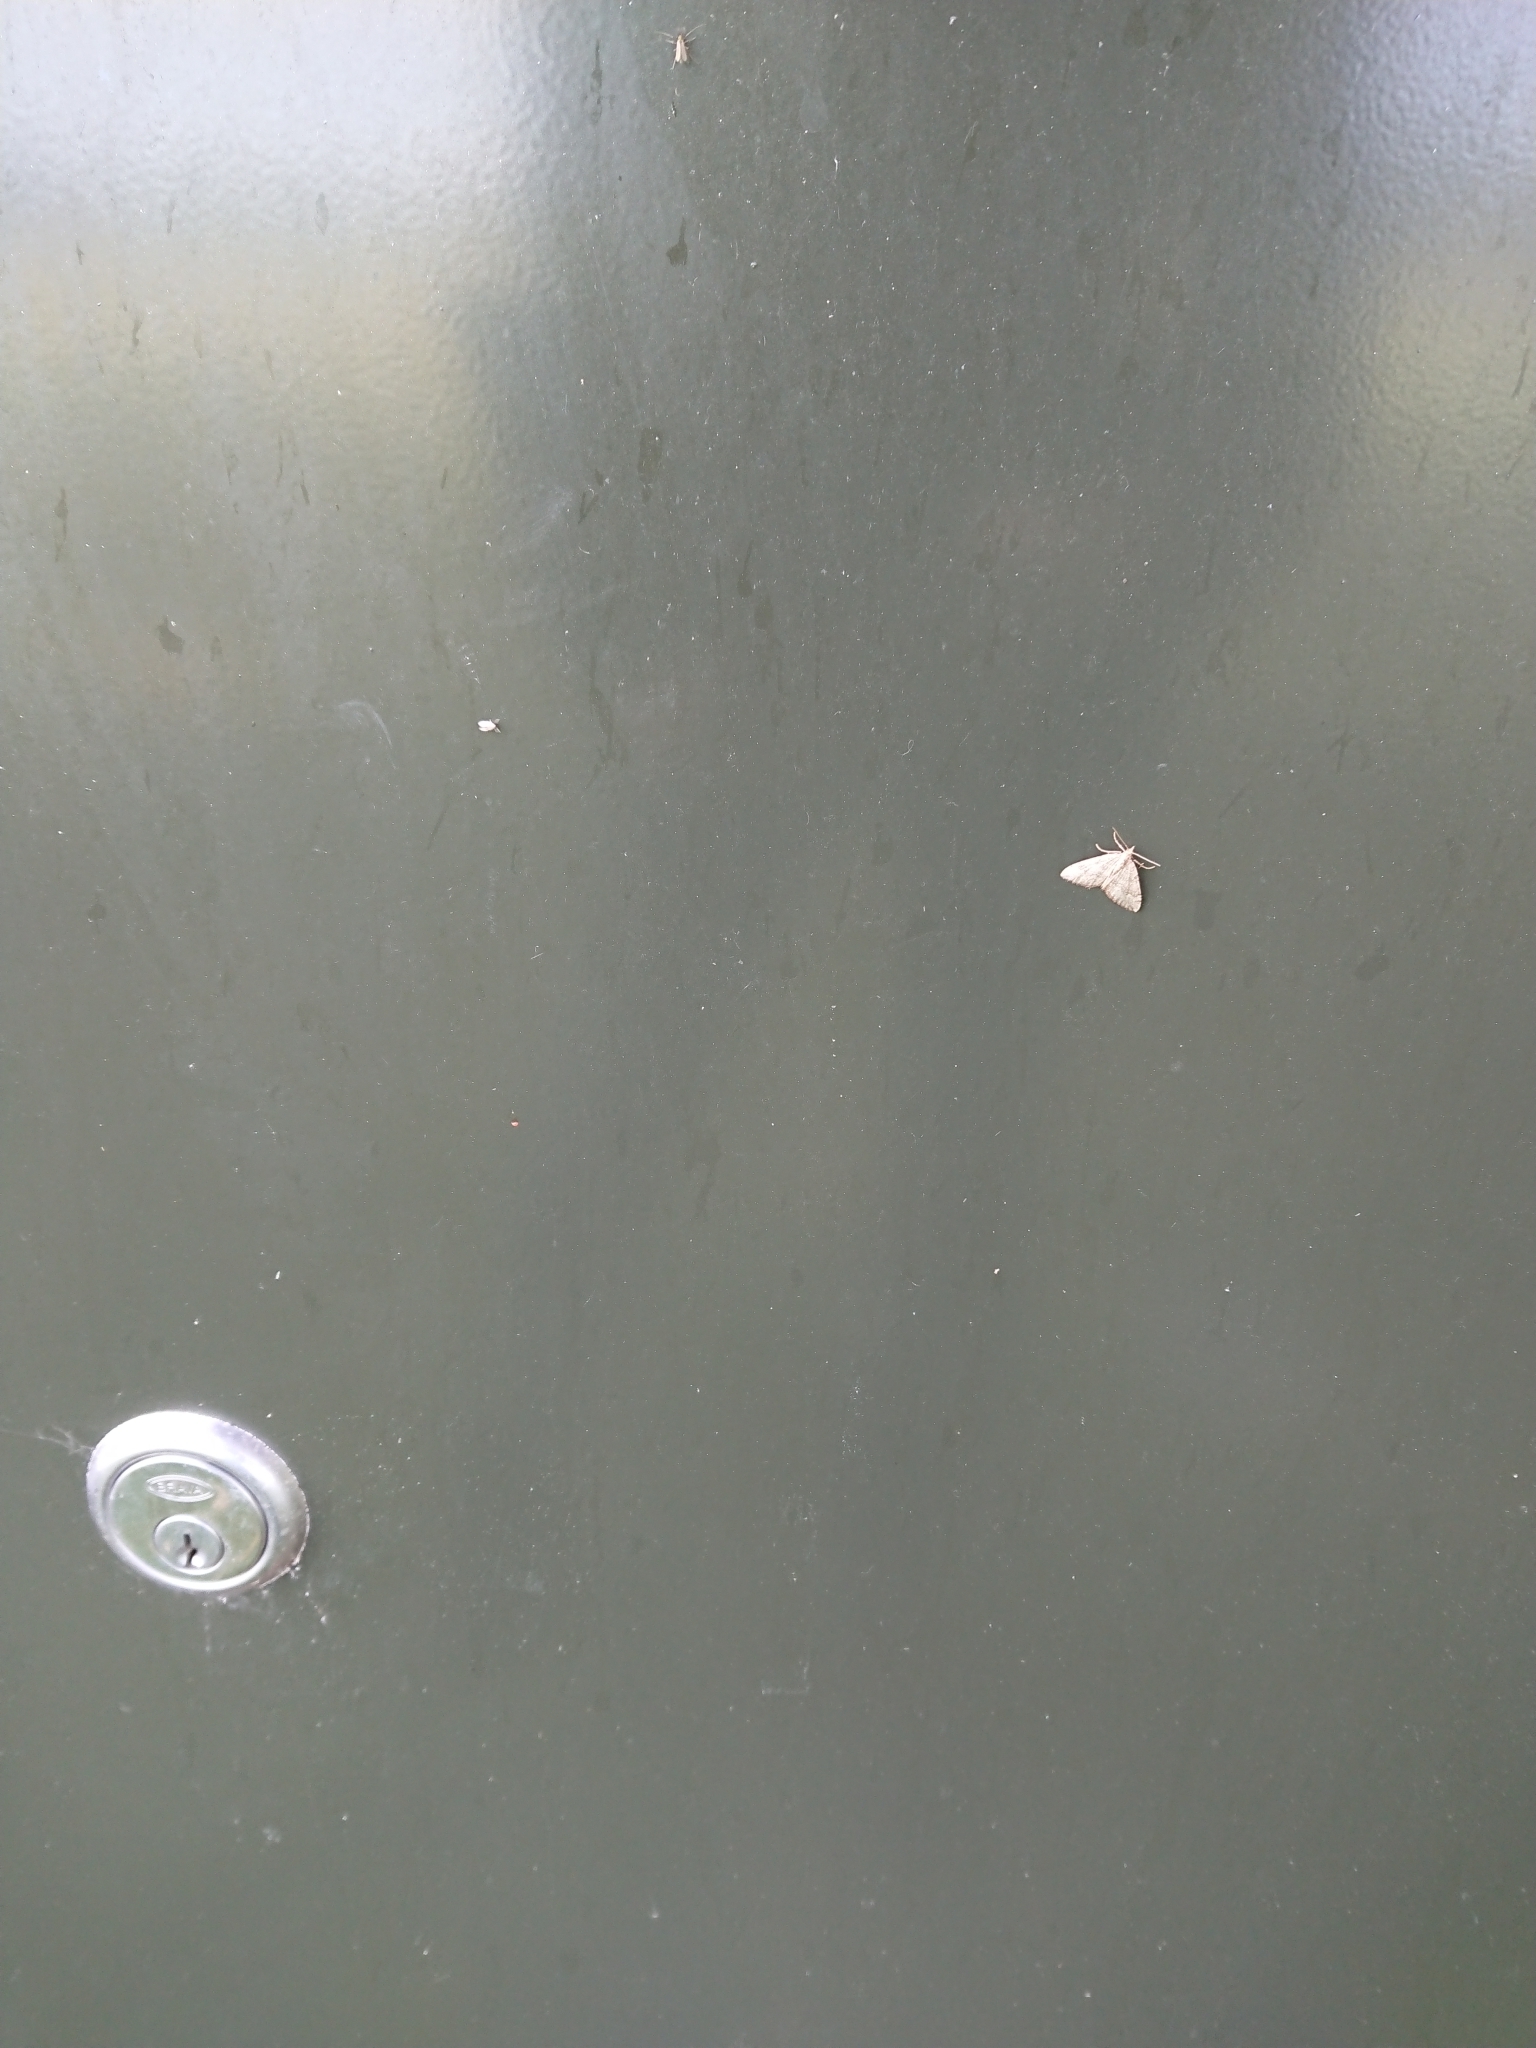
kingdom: Animalia
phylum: Arthropoda
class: Insecta
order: Lepidoptera
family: Geometridae
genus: Epyaxa
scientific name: Epyaxa rosearia
